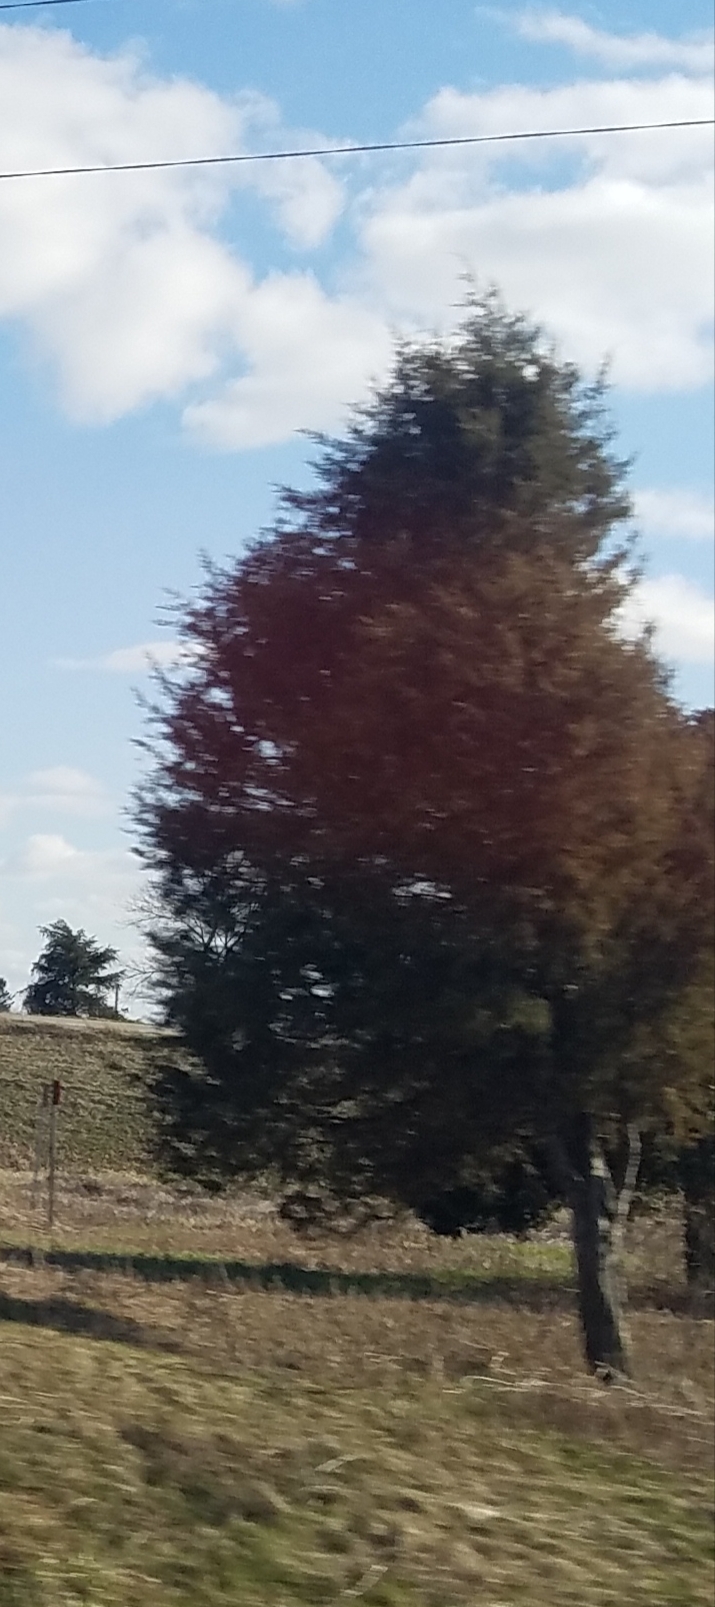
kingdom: Plantae
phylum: Tracheophyta
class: Pinopsida
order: Pinales
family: Cupressaceae
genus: Juniperus
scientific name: Juniperus virginiana
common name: Red juniper
